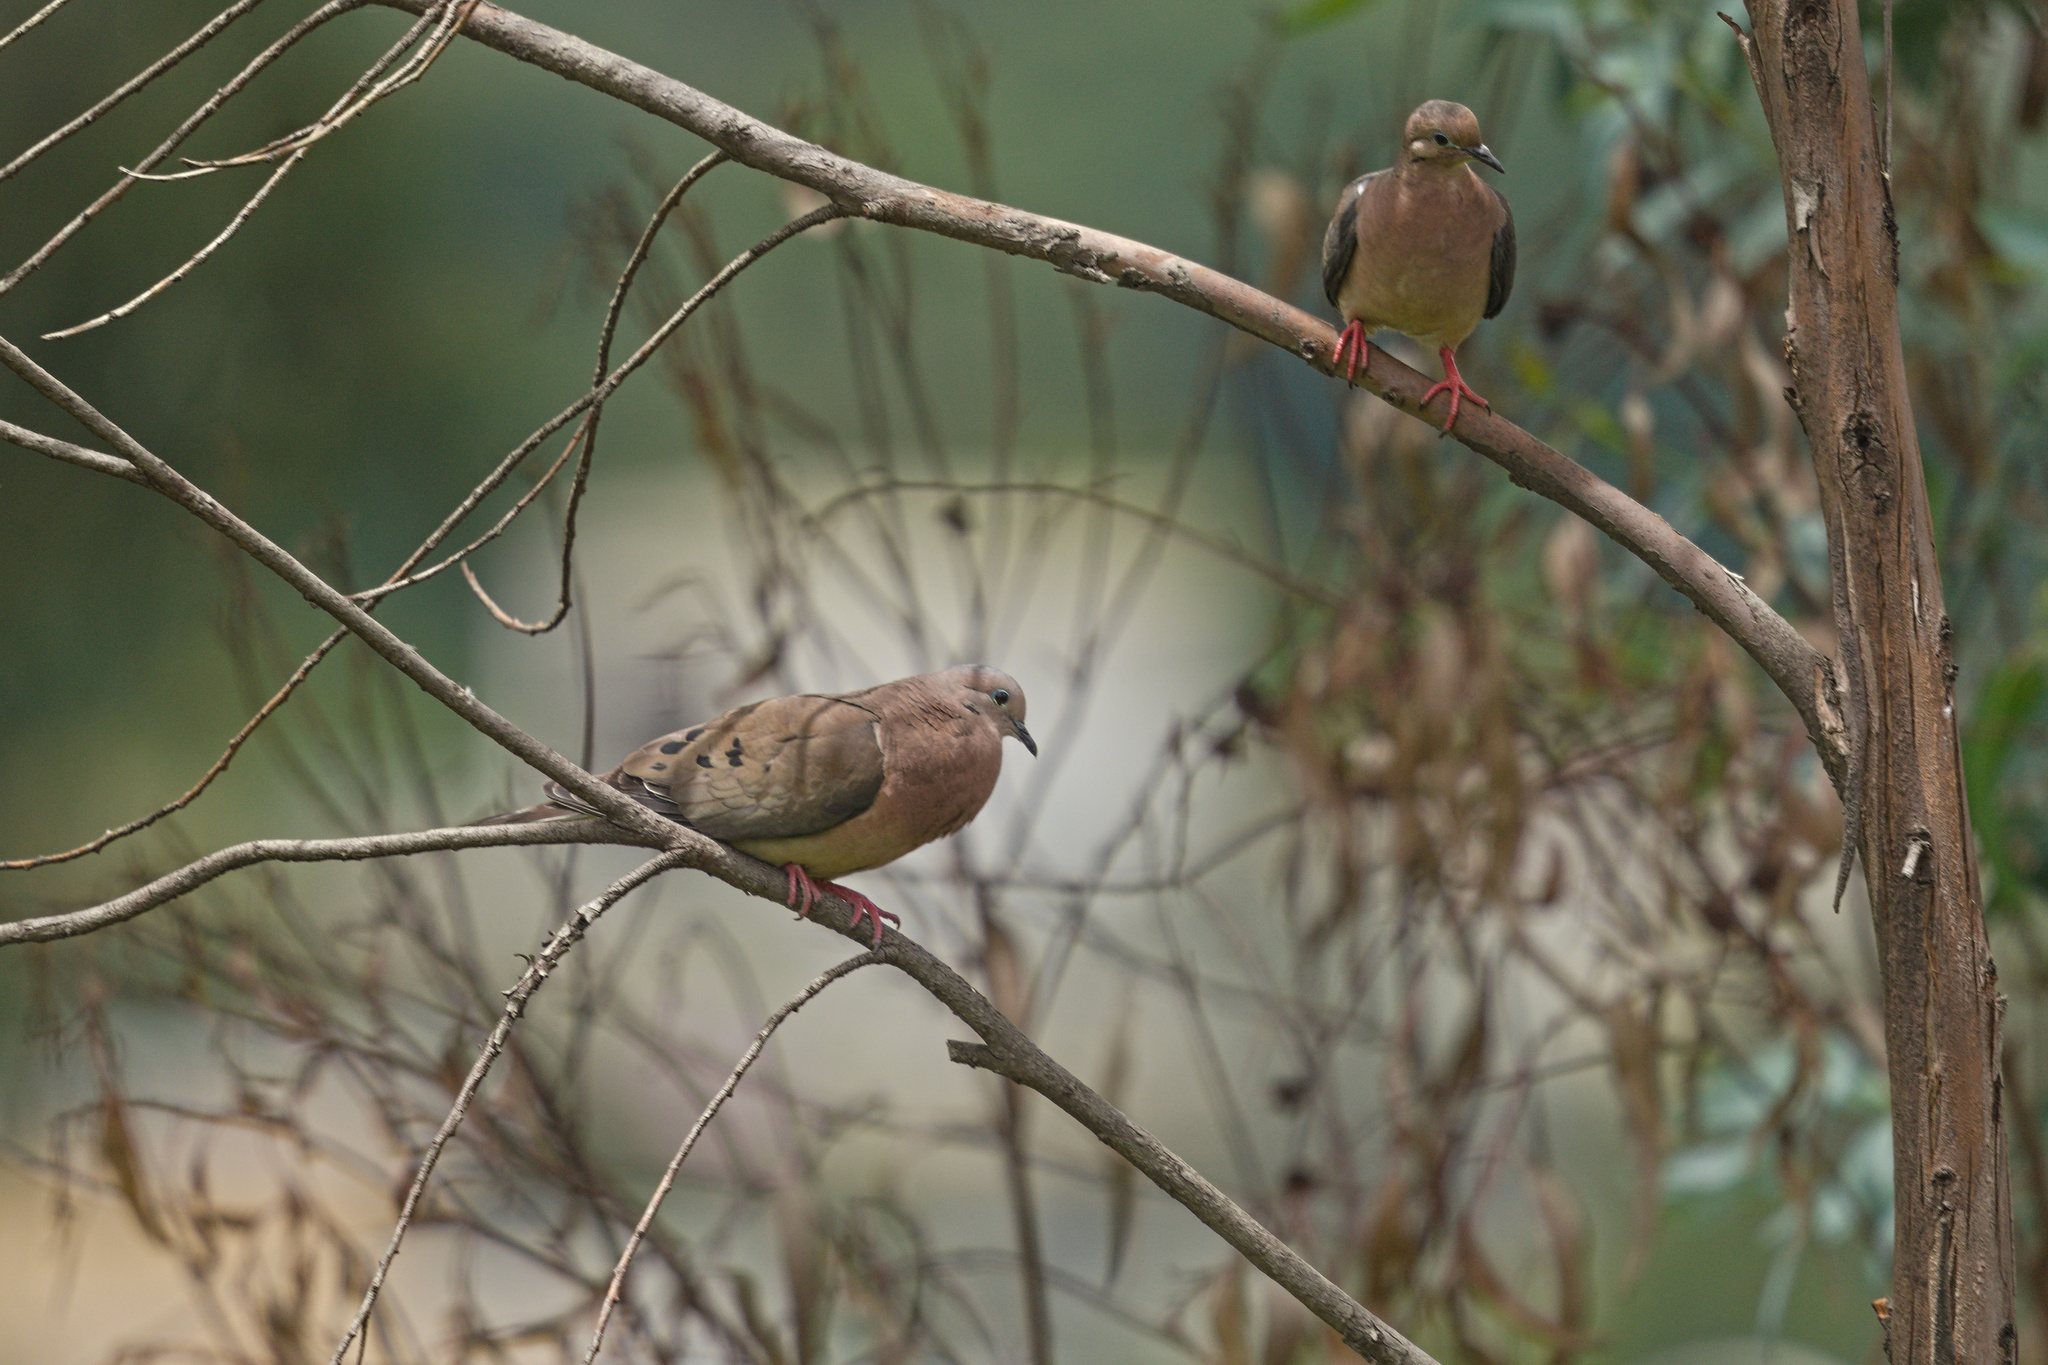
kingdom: Animalia
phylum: Chordata
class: Aves
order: Columbiformes
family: Columbidae
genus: Zenaida
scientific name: Zenaida auriculata
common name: Eared dove
